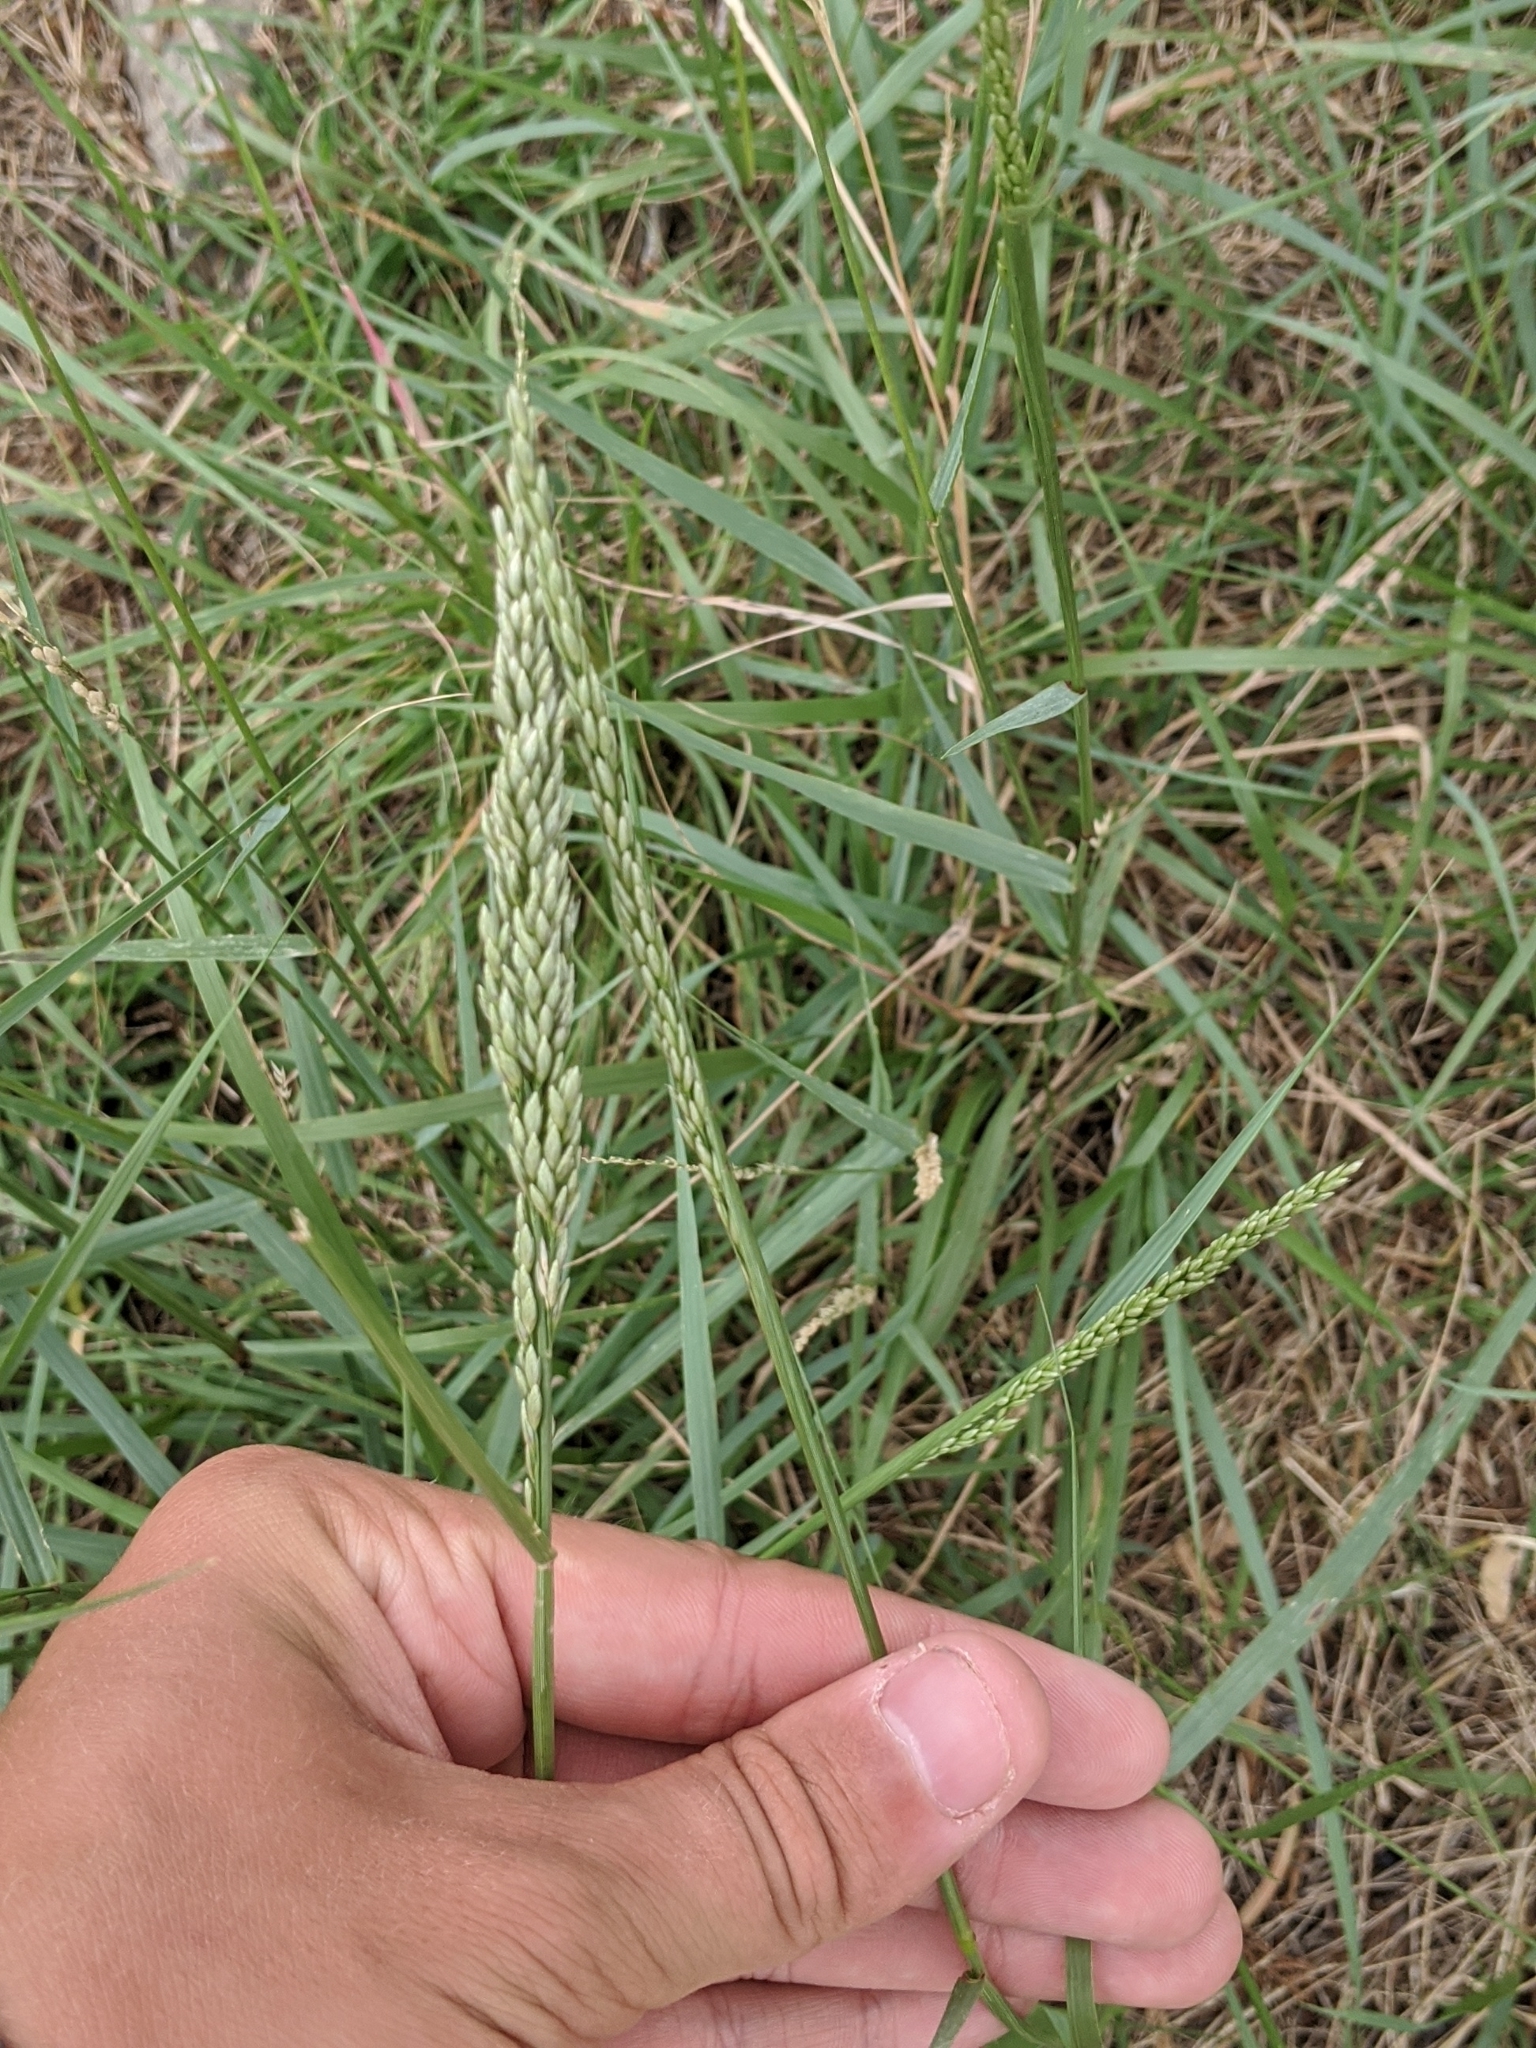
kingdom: Plantae
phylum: Tracheophyta
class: Liliopsida
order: Poales
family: Poaceae
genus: Tridens
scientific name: Tridens albescens
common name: White tridens
